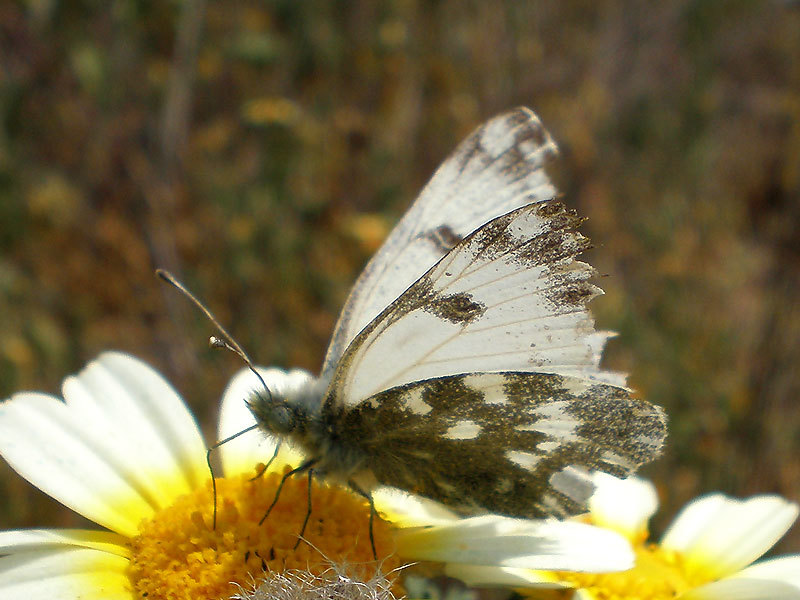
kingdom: Animalia
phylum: Arthropoda
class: Insecta
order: Lepidoptera
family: Pieridae
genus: Pontia
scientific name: Pontia daplidice
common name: Bath white
